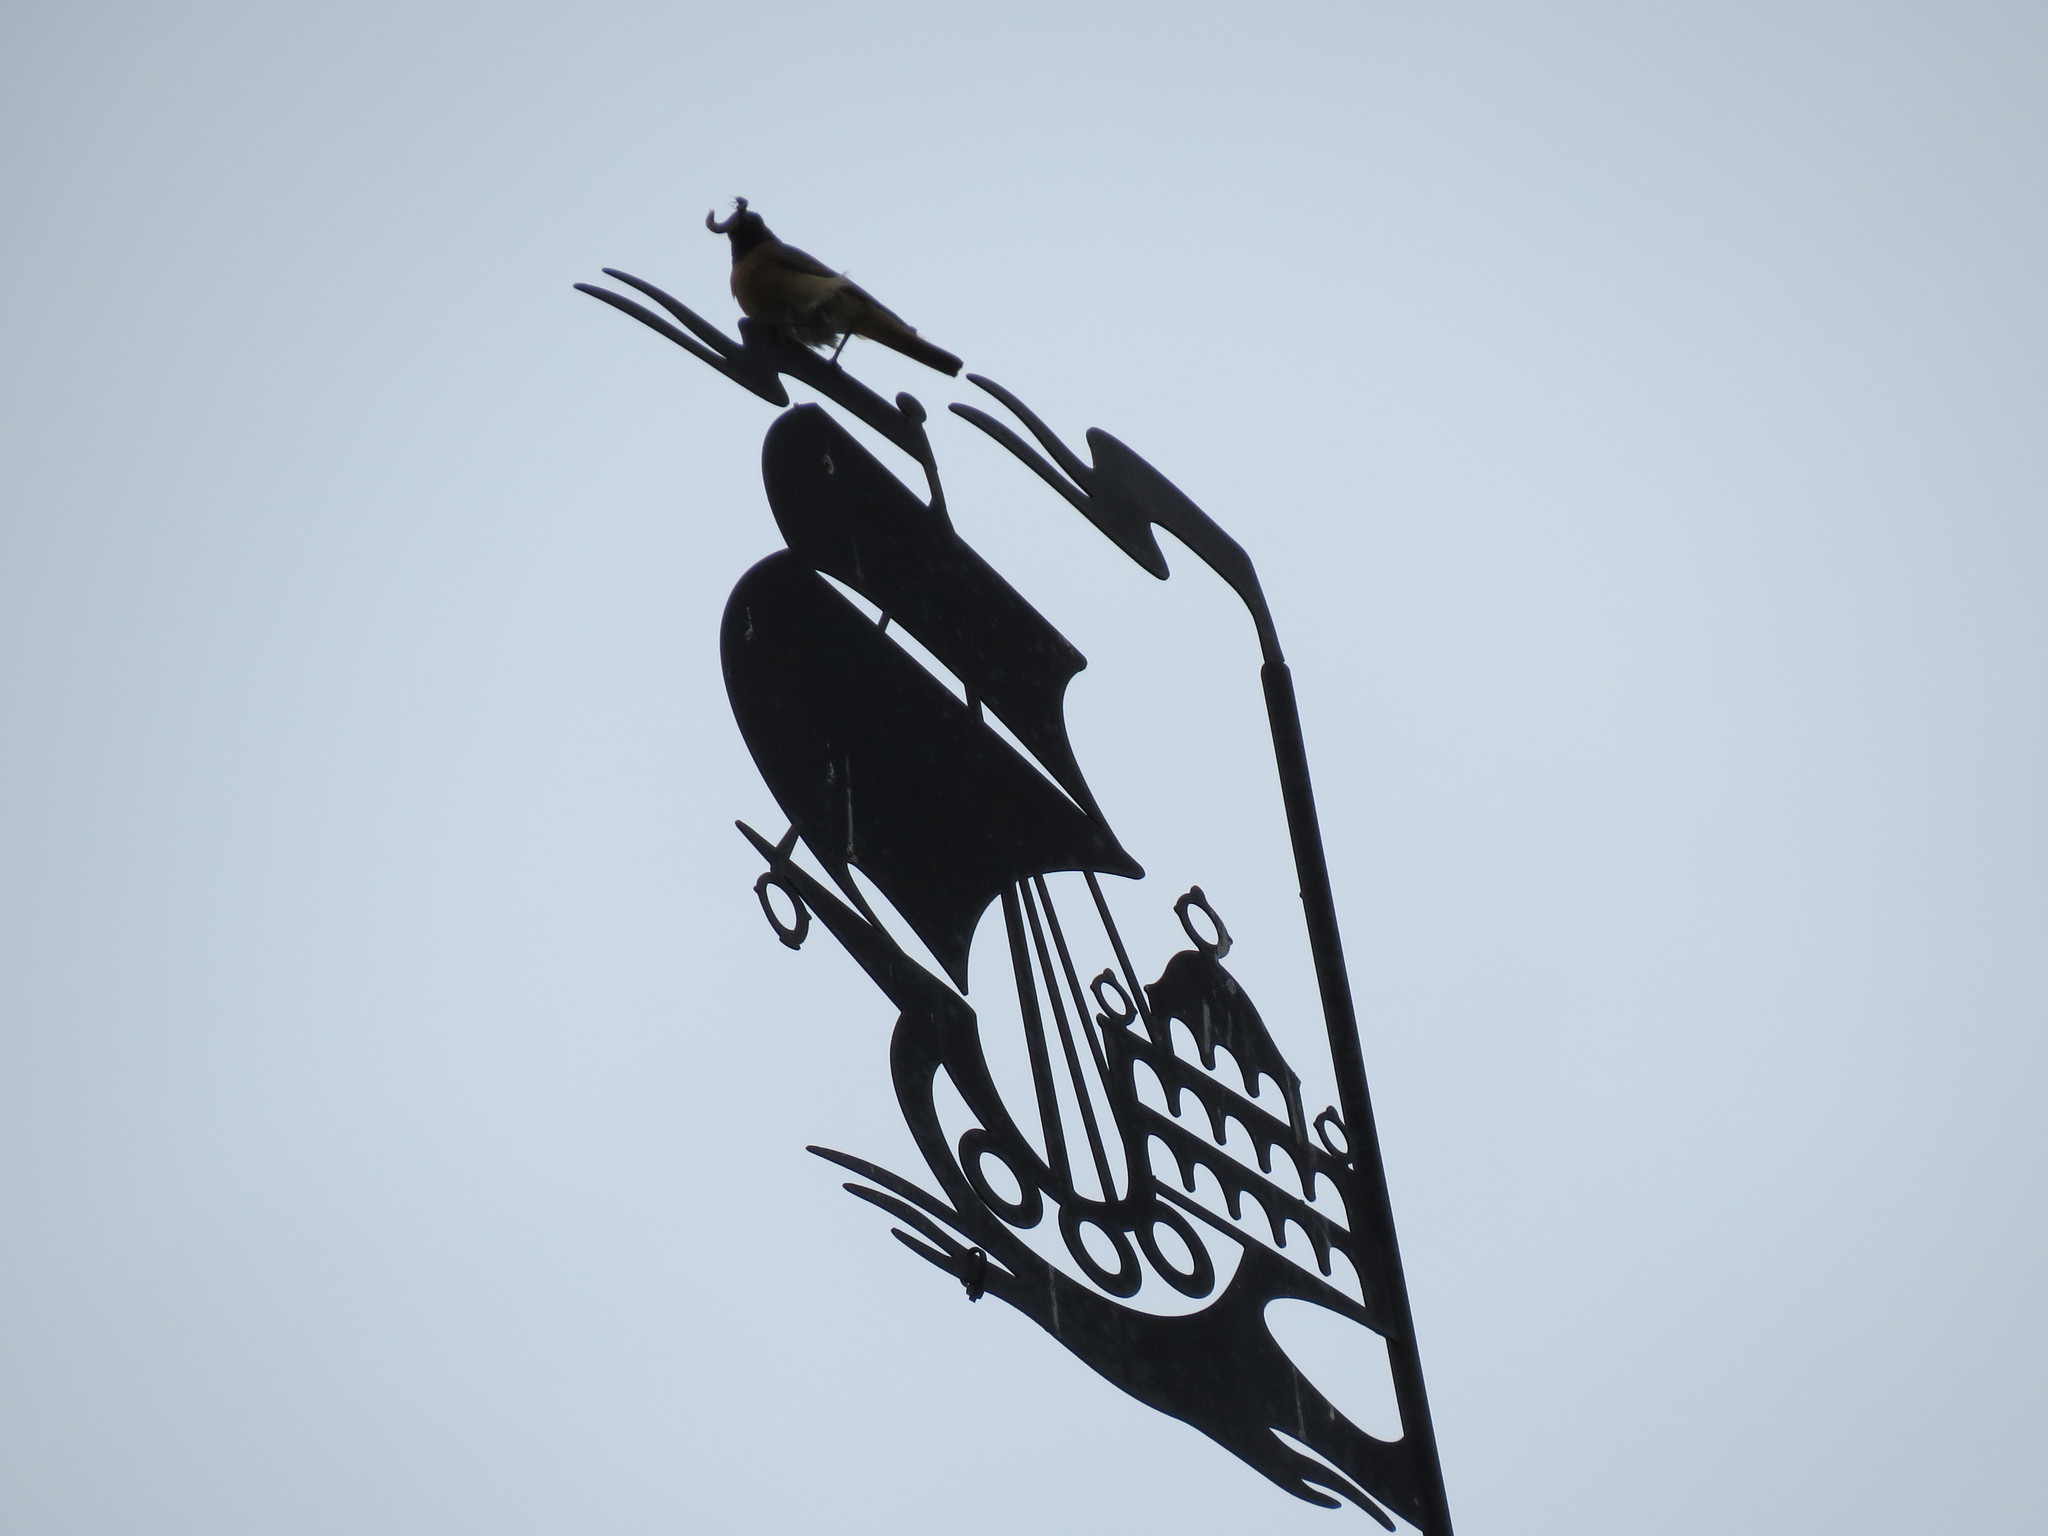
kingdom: Animalia
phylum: Chordata
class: Aves
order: Passeriformes
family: Muscicapidae
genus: Phoenicurus
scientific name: Phoenicurus phoenicurus
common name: Common redstart
